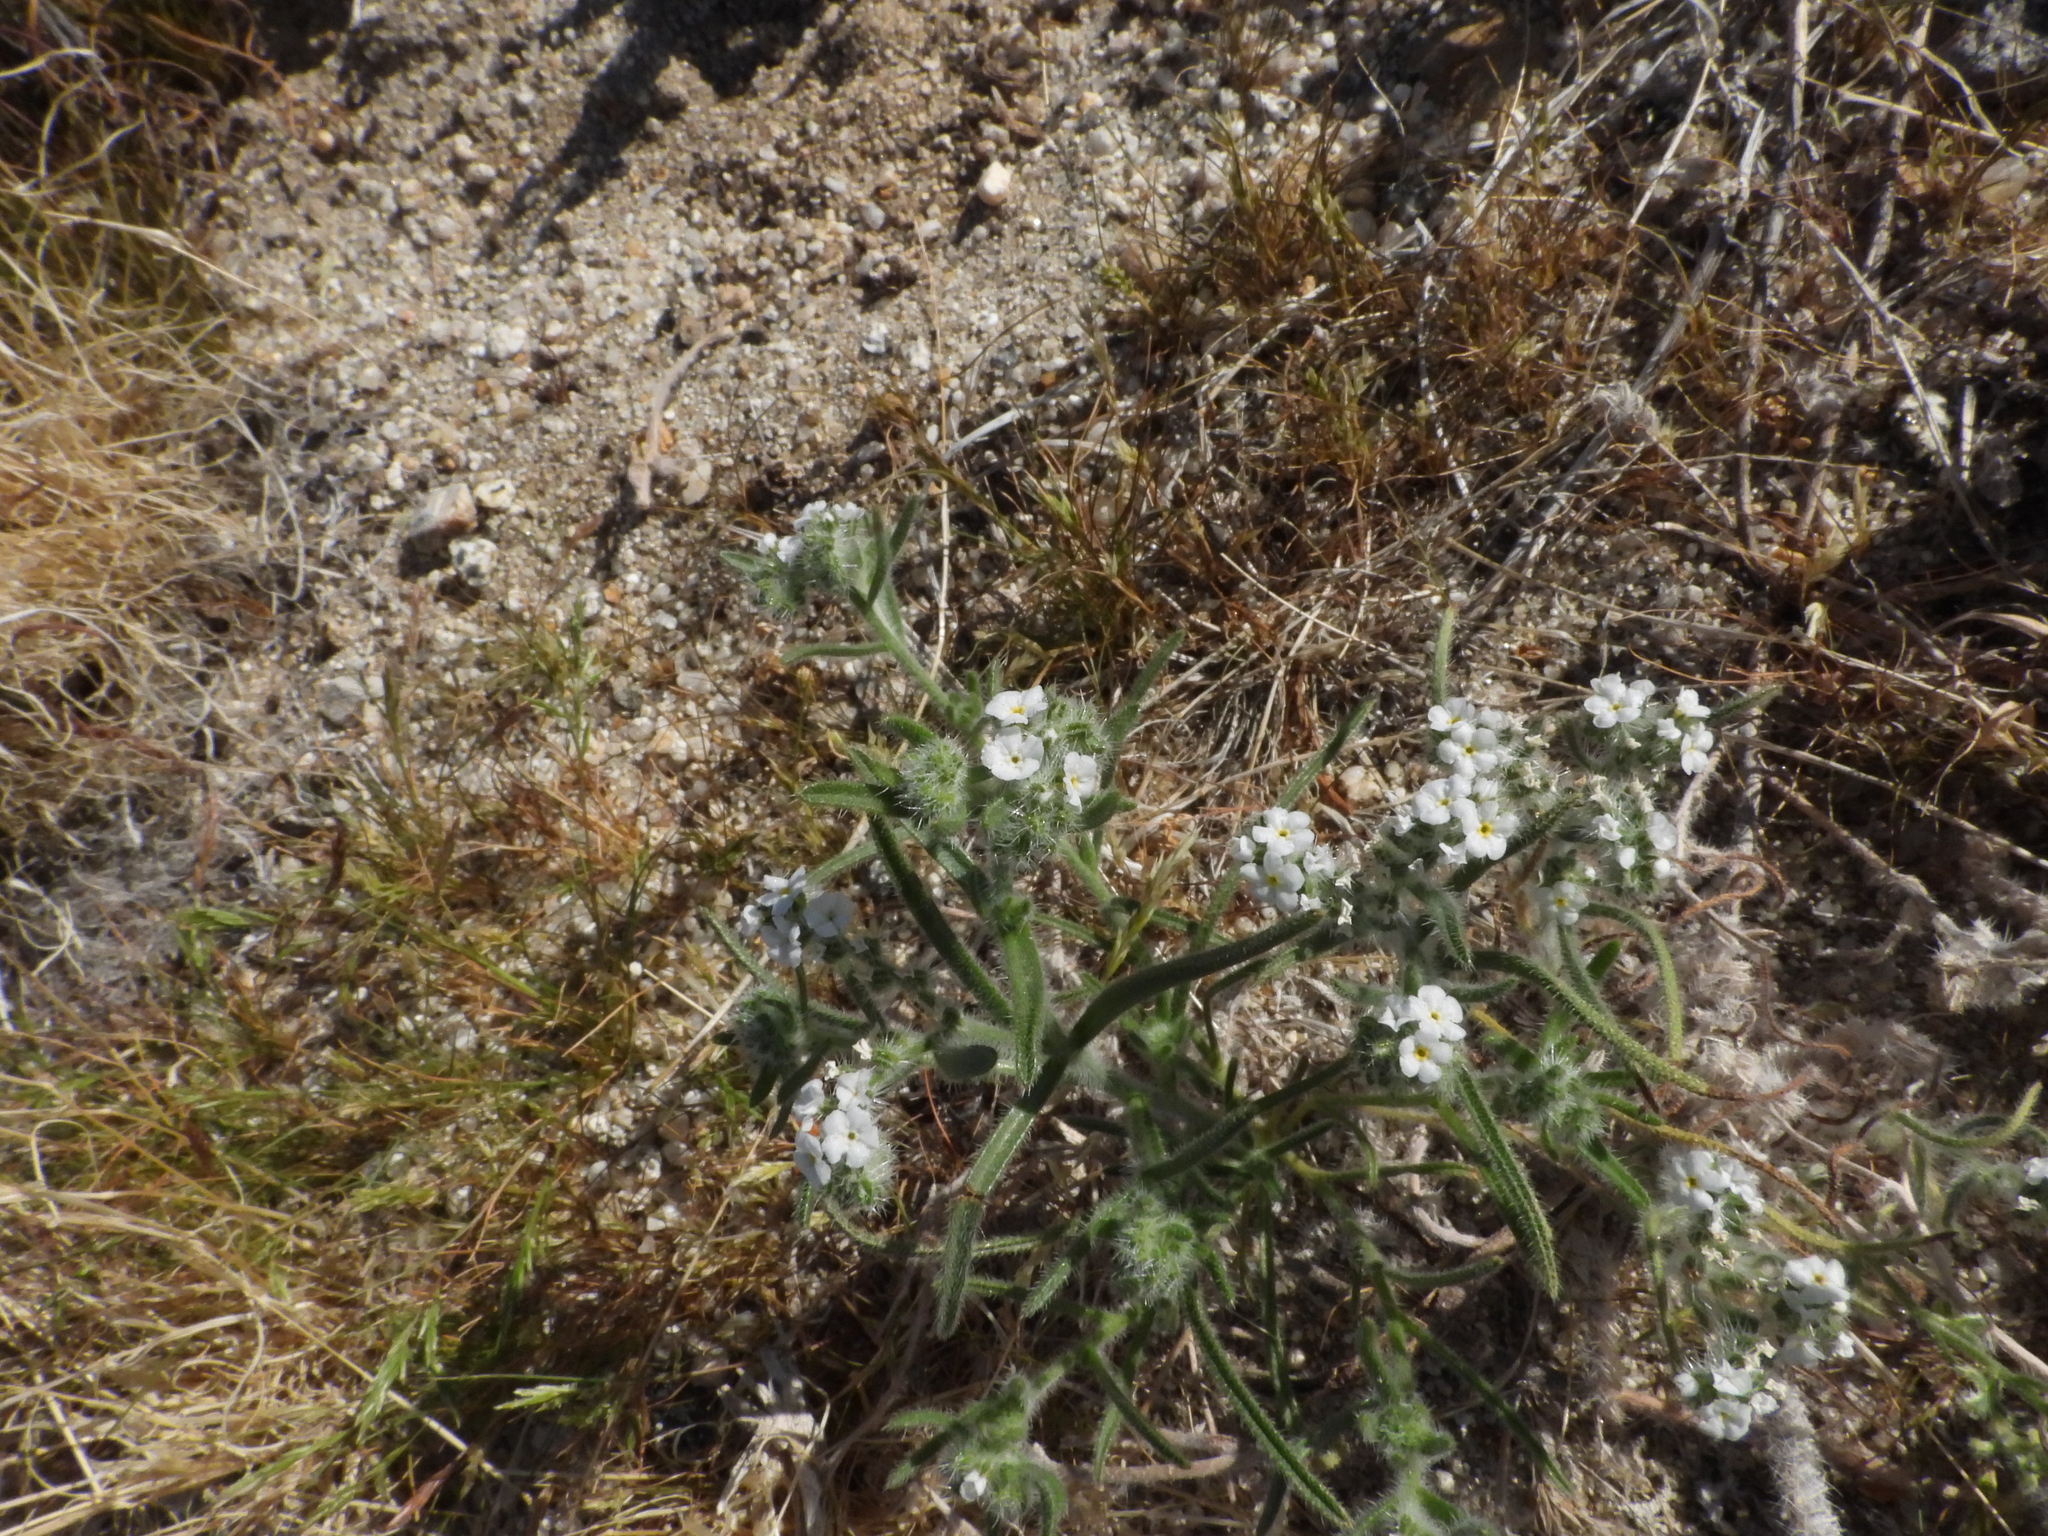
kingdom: Plantae
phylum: Tracheophyta
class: Magnoliopsida
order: Boraginales
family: Boraginaceae
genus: Johnstonella
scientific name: Johnstonella angustifolia
